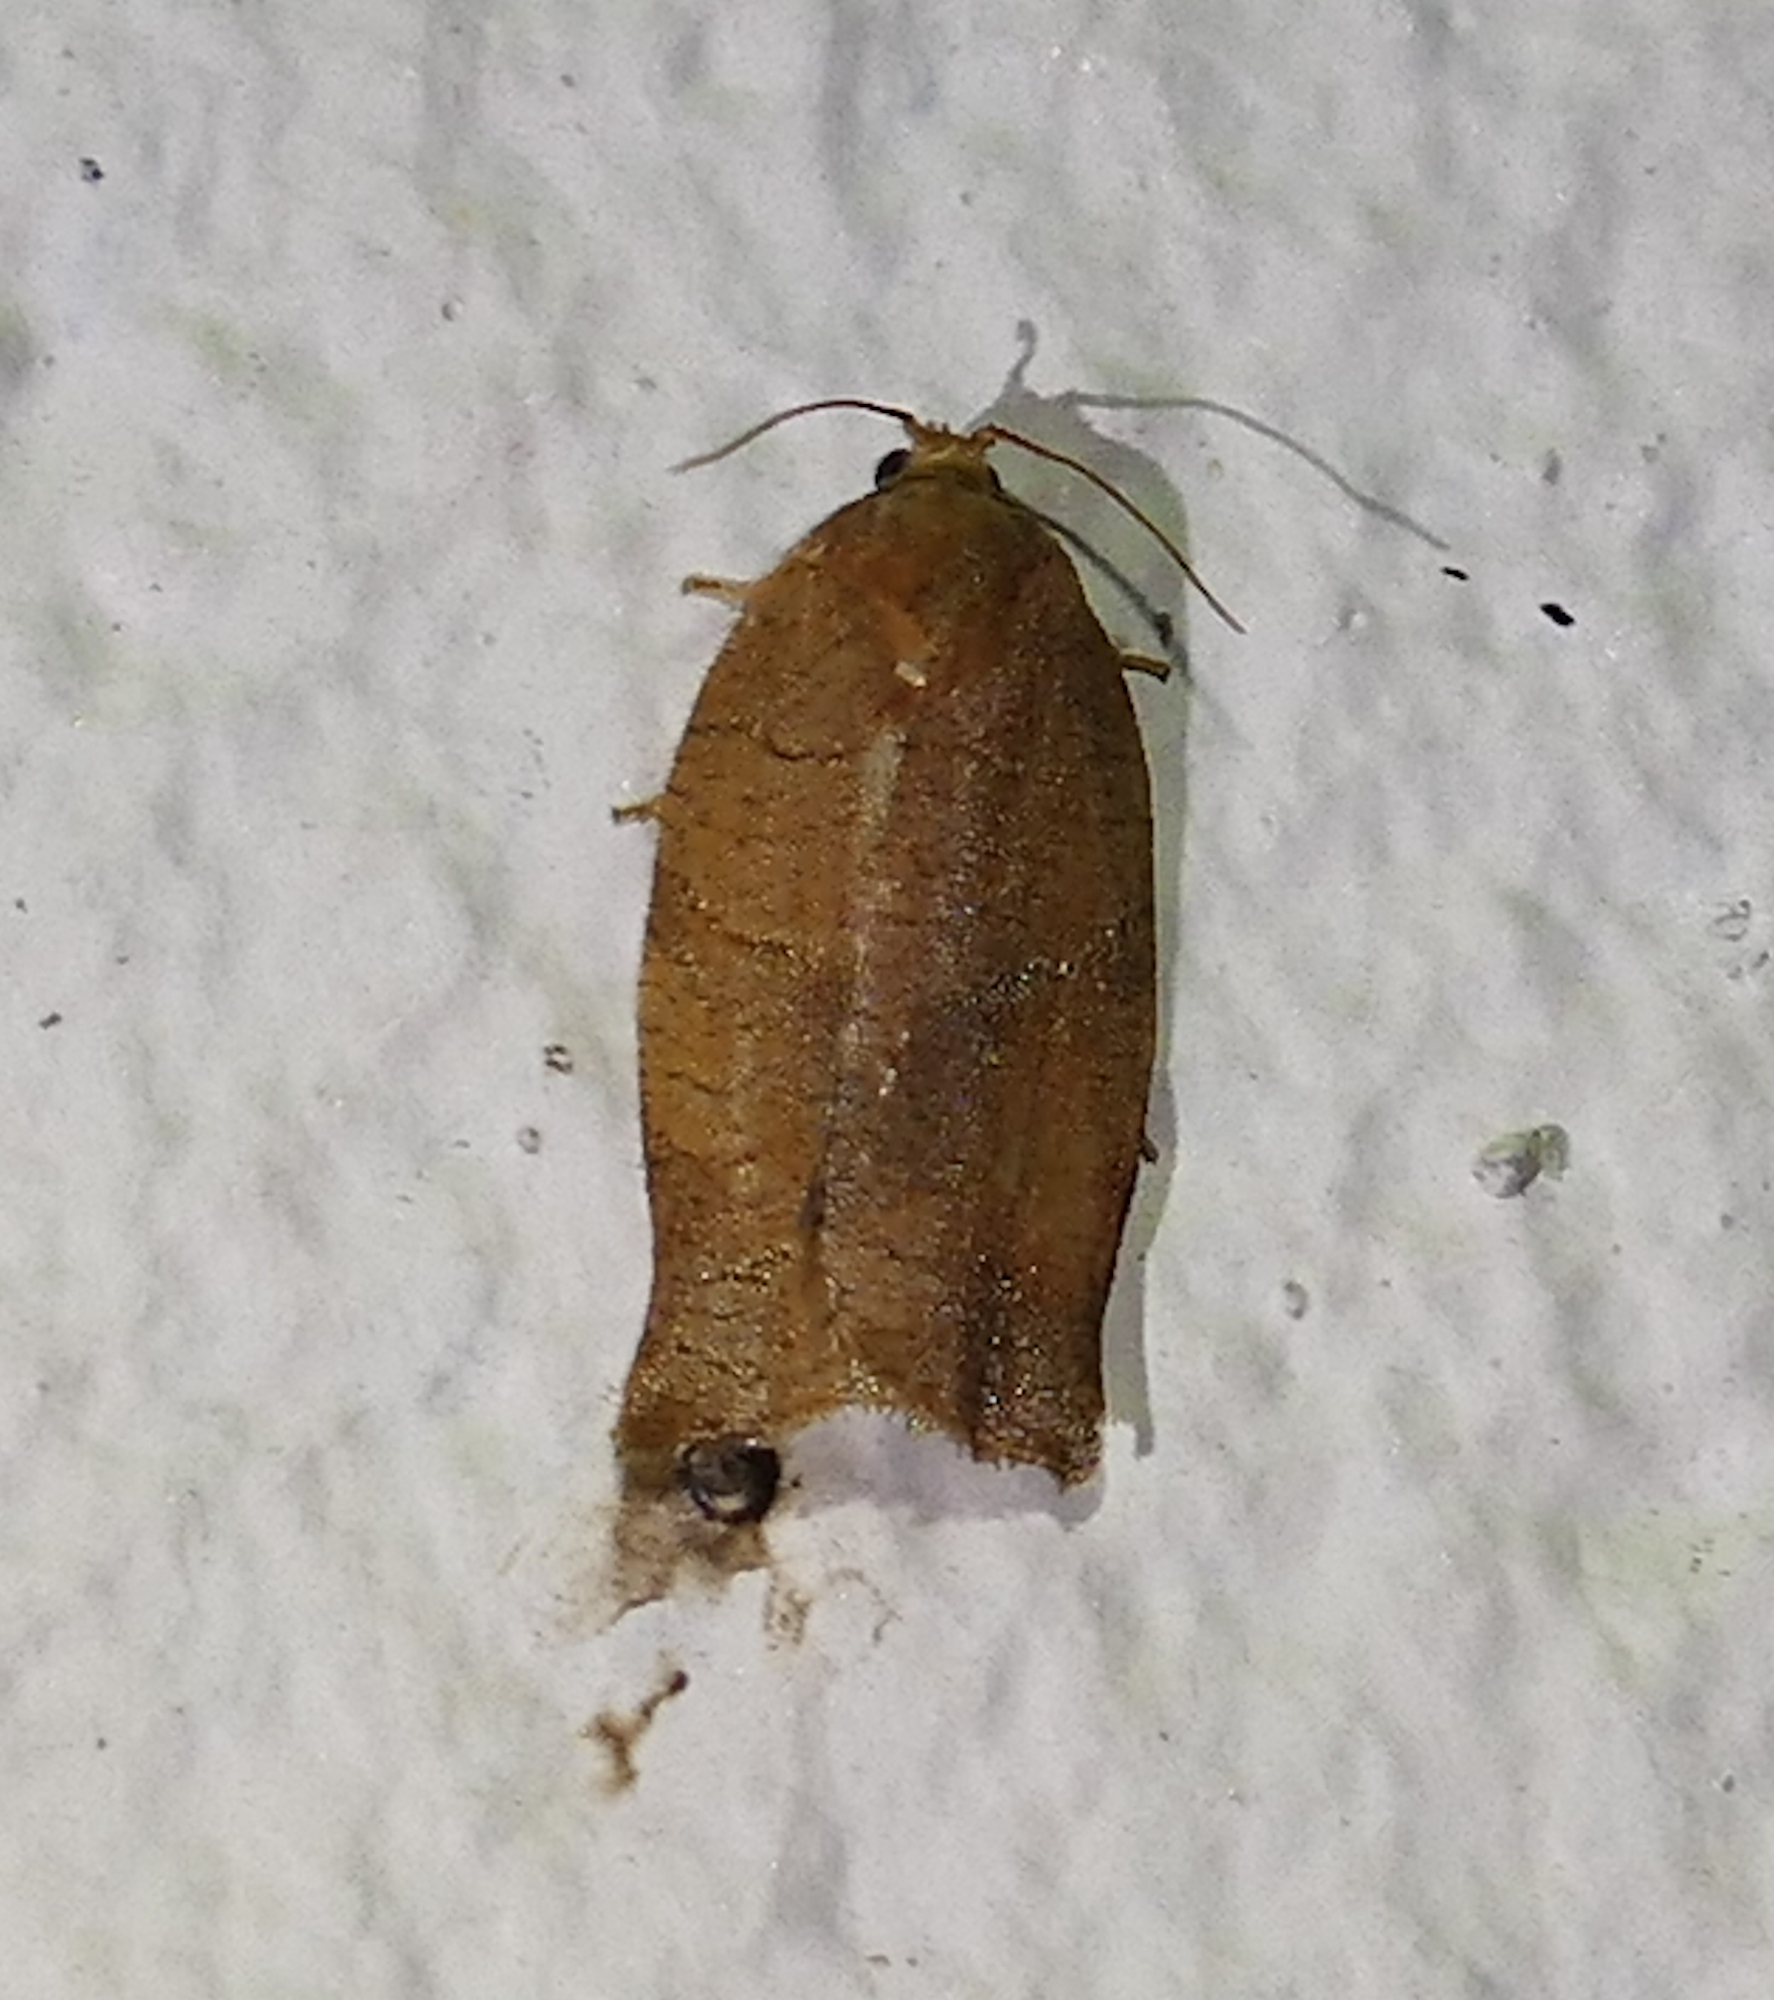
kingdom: Animalia
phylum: Arthropoda
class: Insecta
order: Lepidoptera
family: Tortricidae
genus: Choristoneura
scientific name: Choristoneura rosaceana
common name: Oblique-banded leafroller moth
